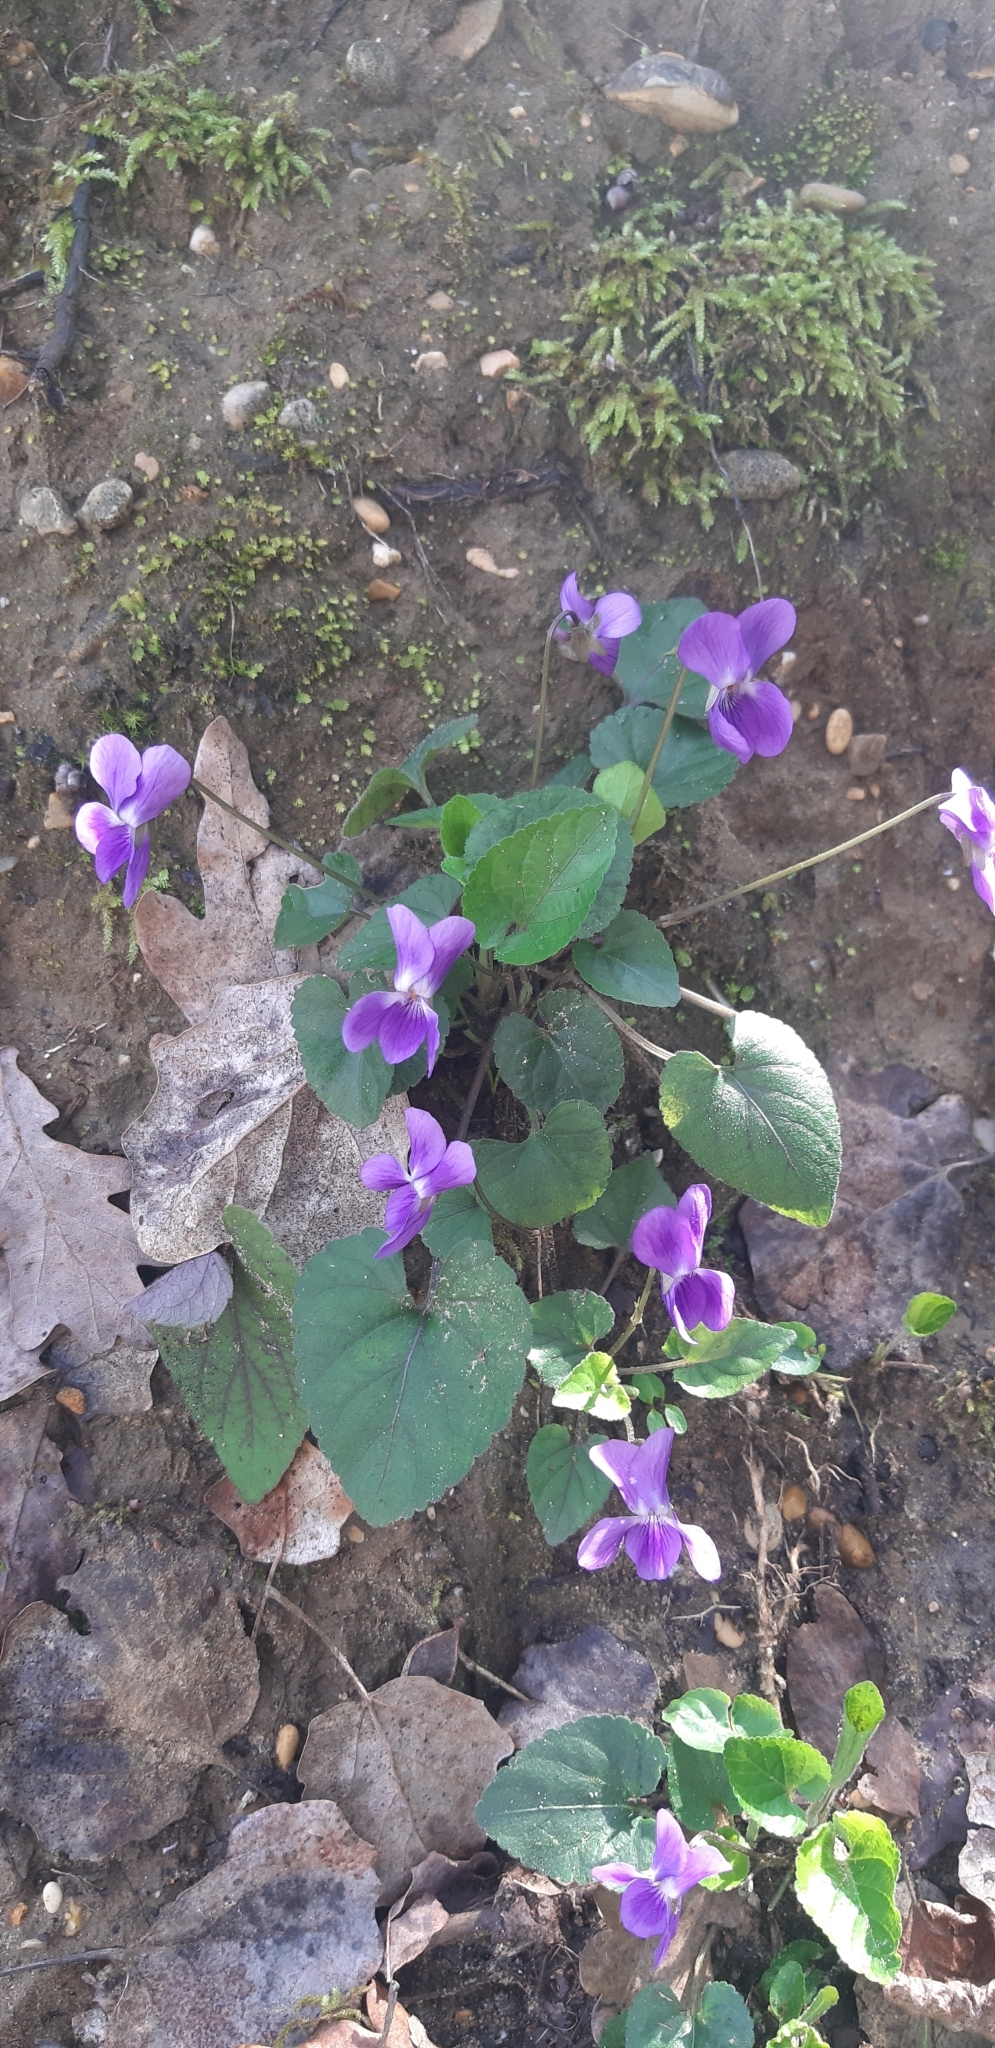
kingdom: Plantae
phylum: Tracheophyta
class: Magnoliopsida
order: Malpighiales
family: Violaceae
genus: Viola
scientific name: Viola odorata
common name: Sweet violet
